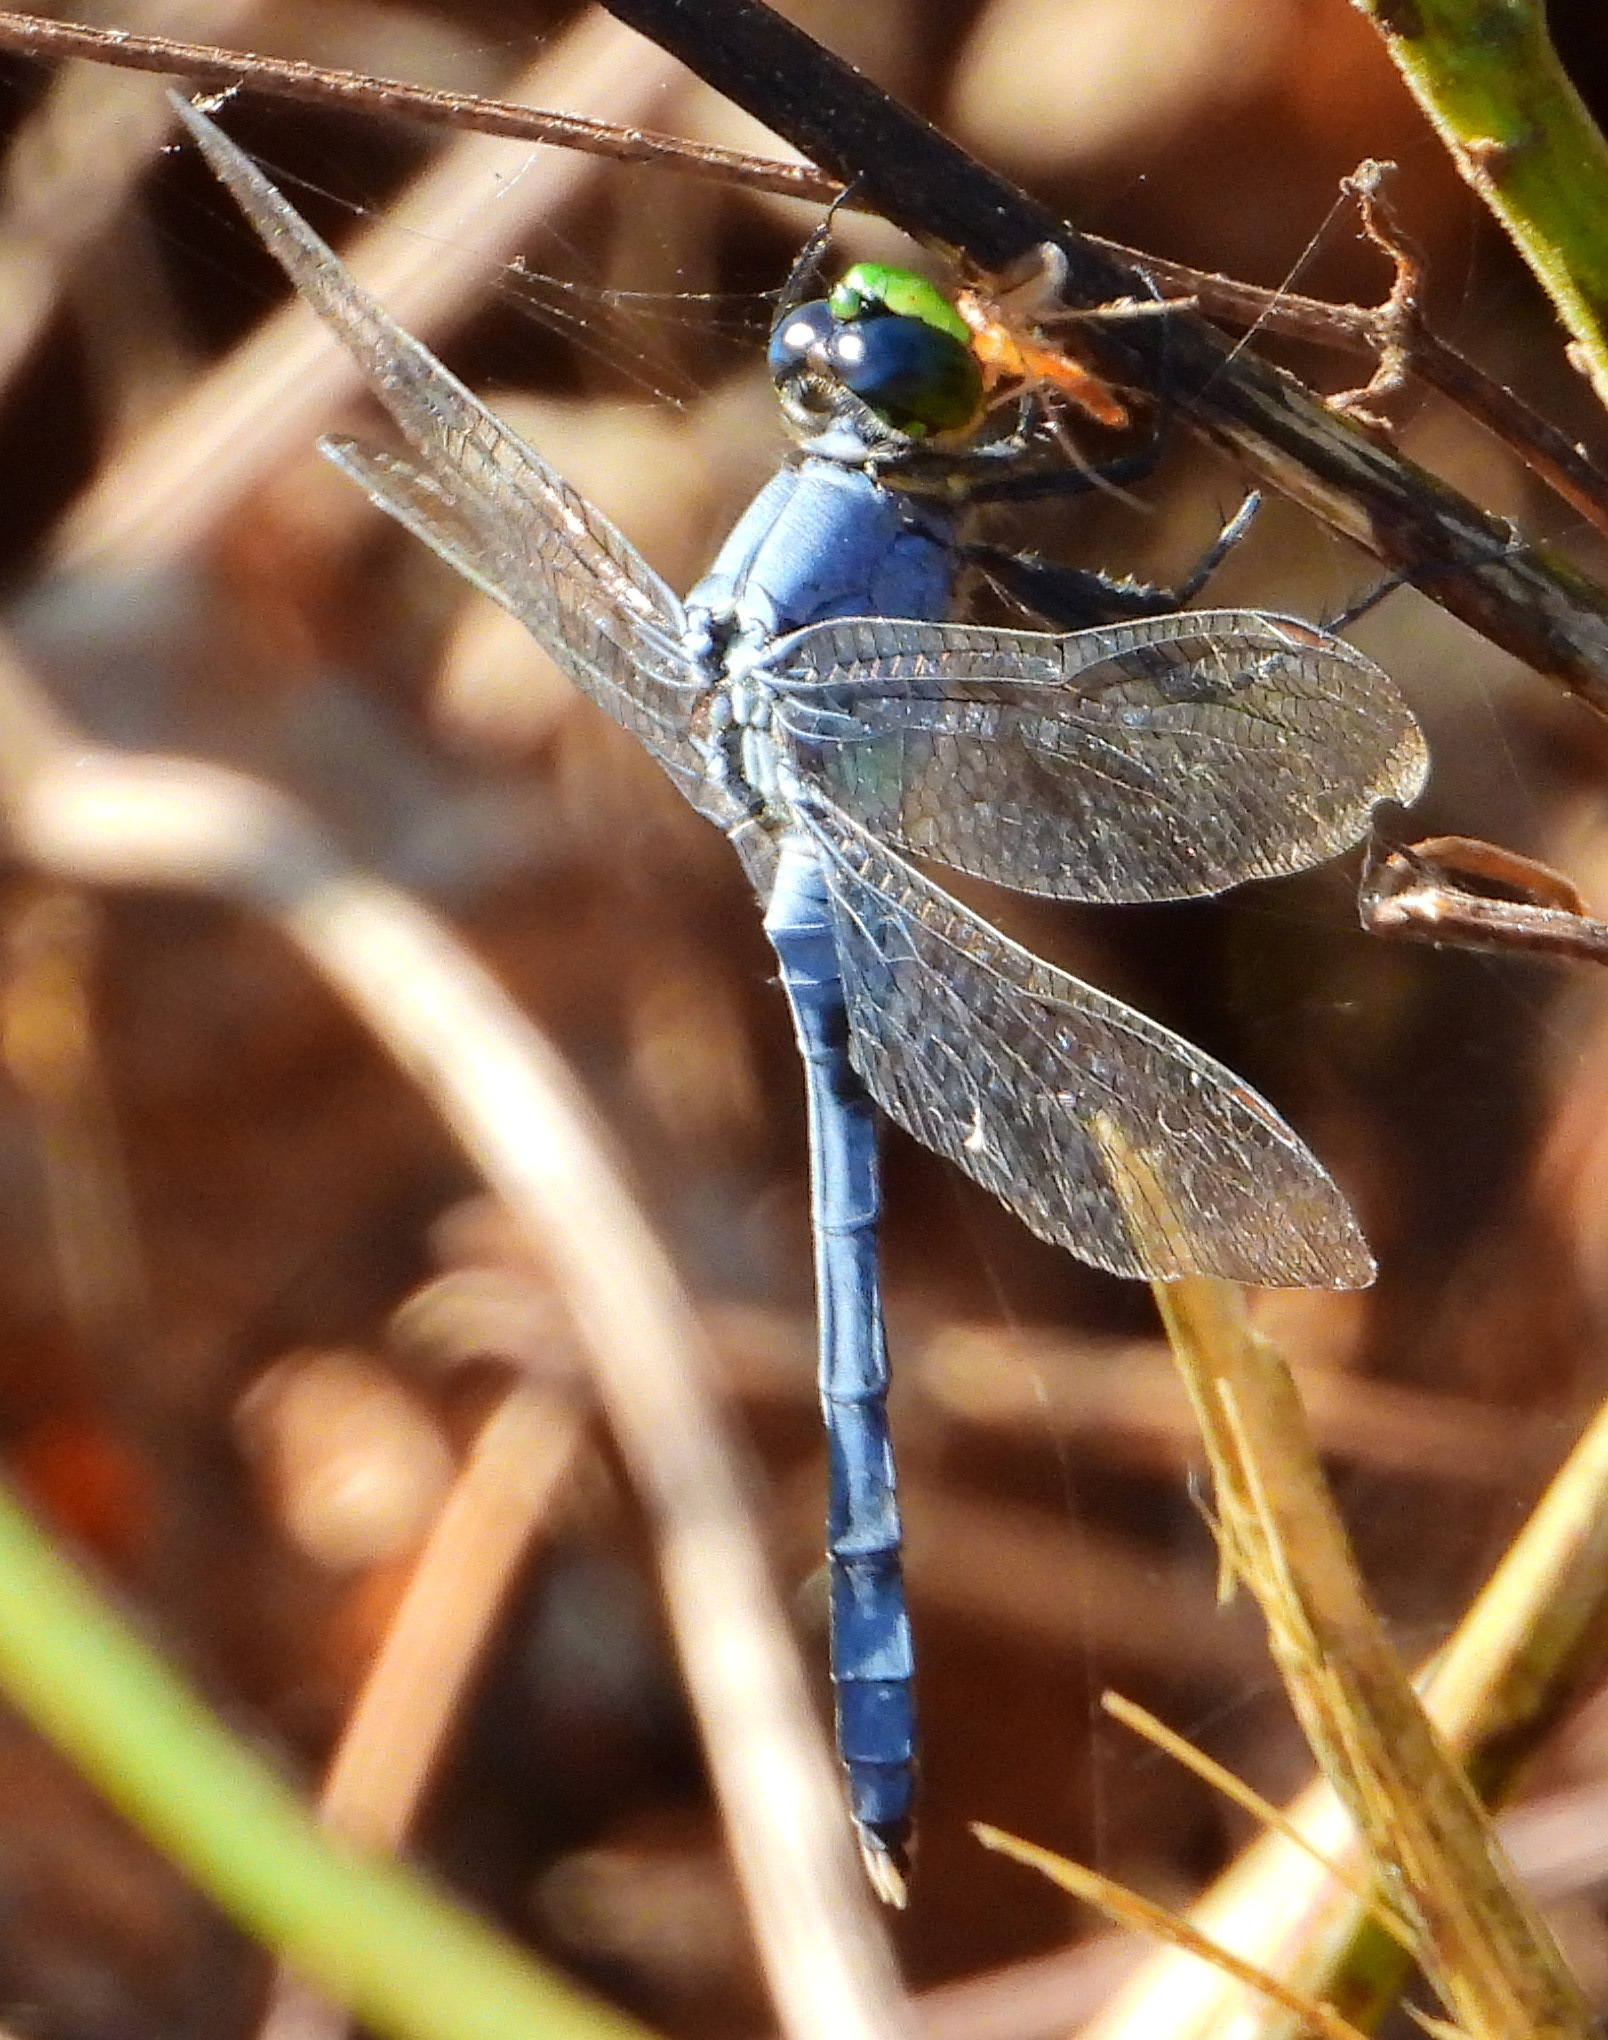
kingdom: Animalia
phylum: Arthropoda
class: Insecta
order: Odonata
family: Libellulidae
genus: Erythemis
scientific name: Erythemis simplicicollis
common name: Eastern pondhawk
